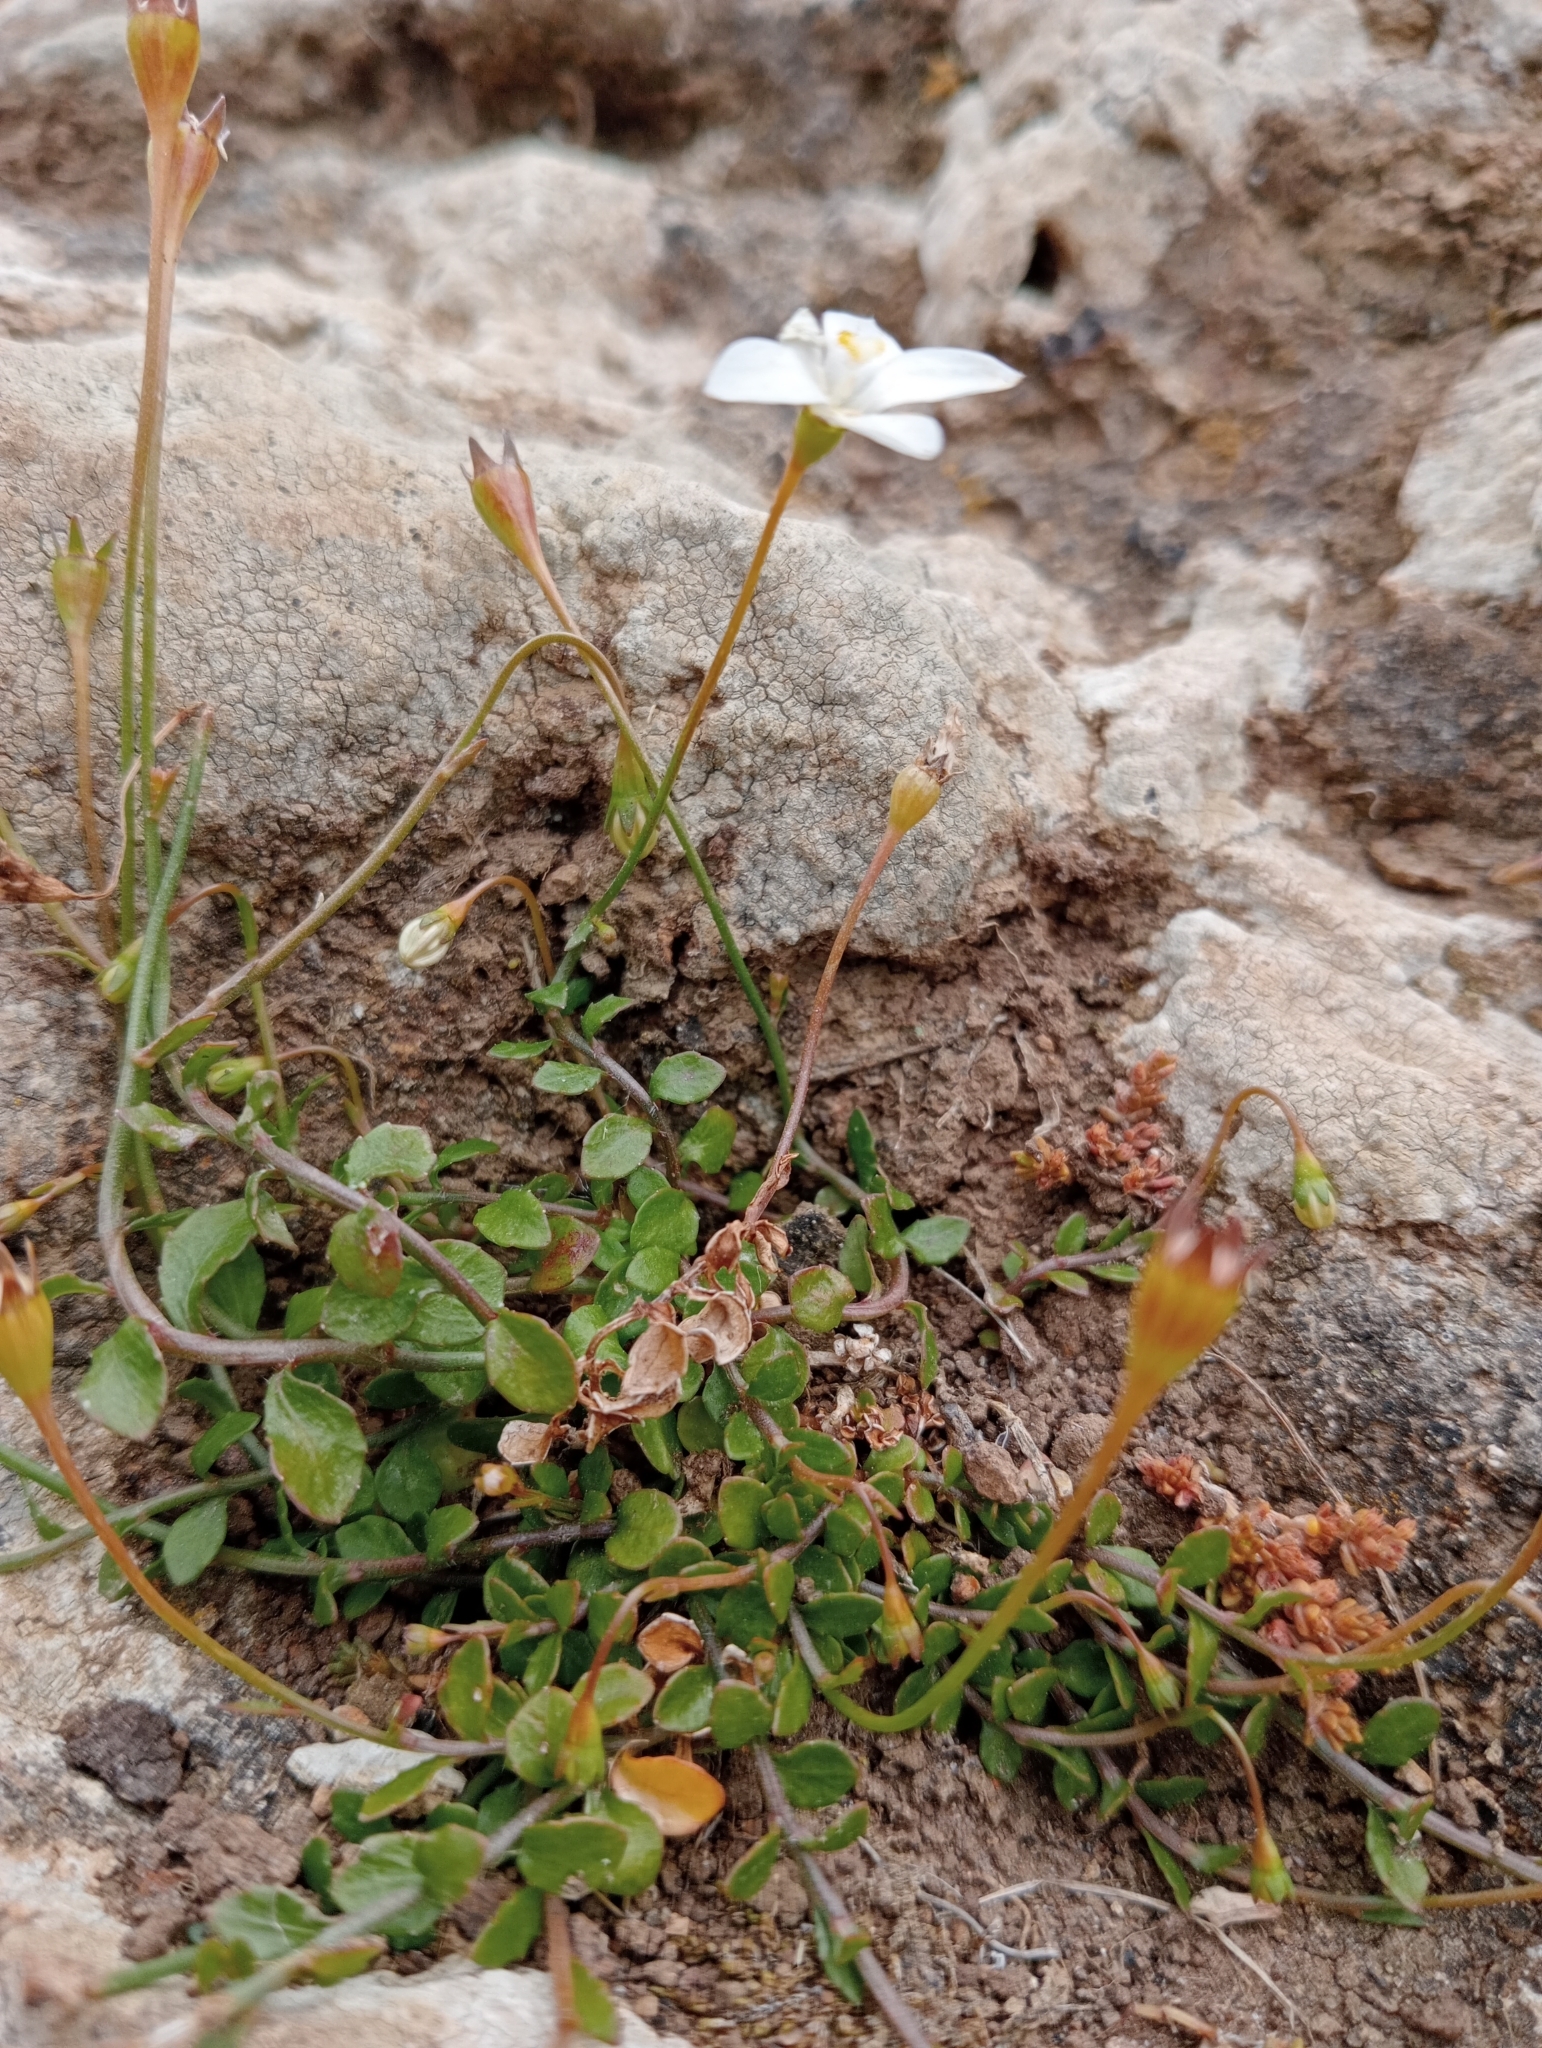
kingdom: Plantae
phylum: Tracheophyta
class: Magnoliopsida
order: Asterales
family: Campanulaceae
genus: Wahlenbergia
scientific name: Wahlenbergia rupestris
